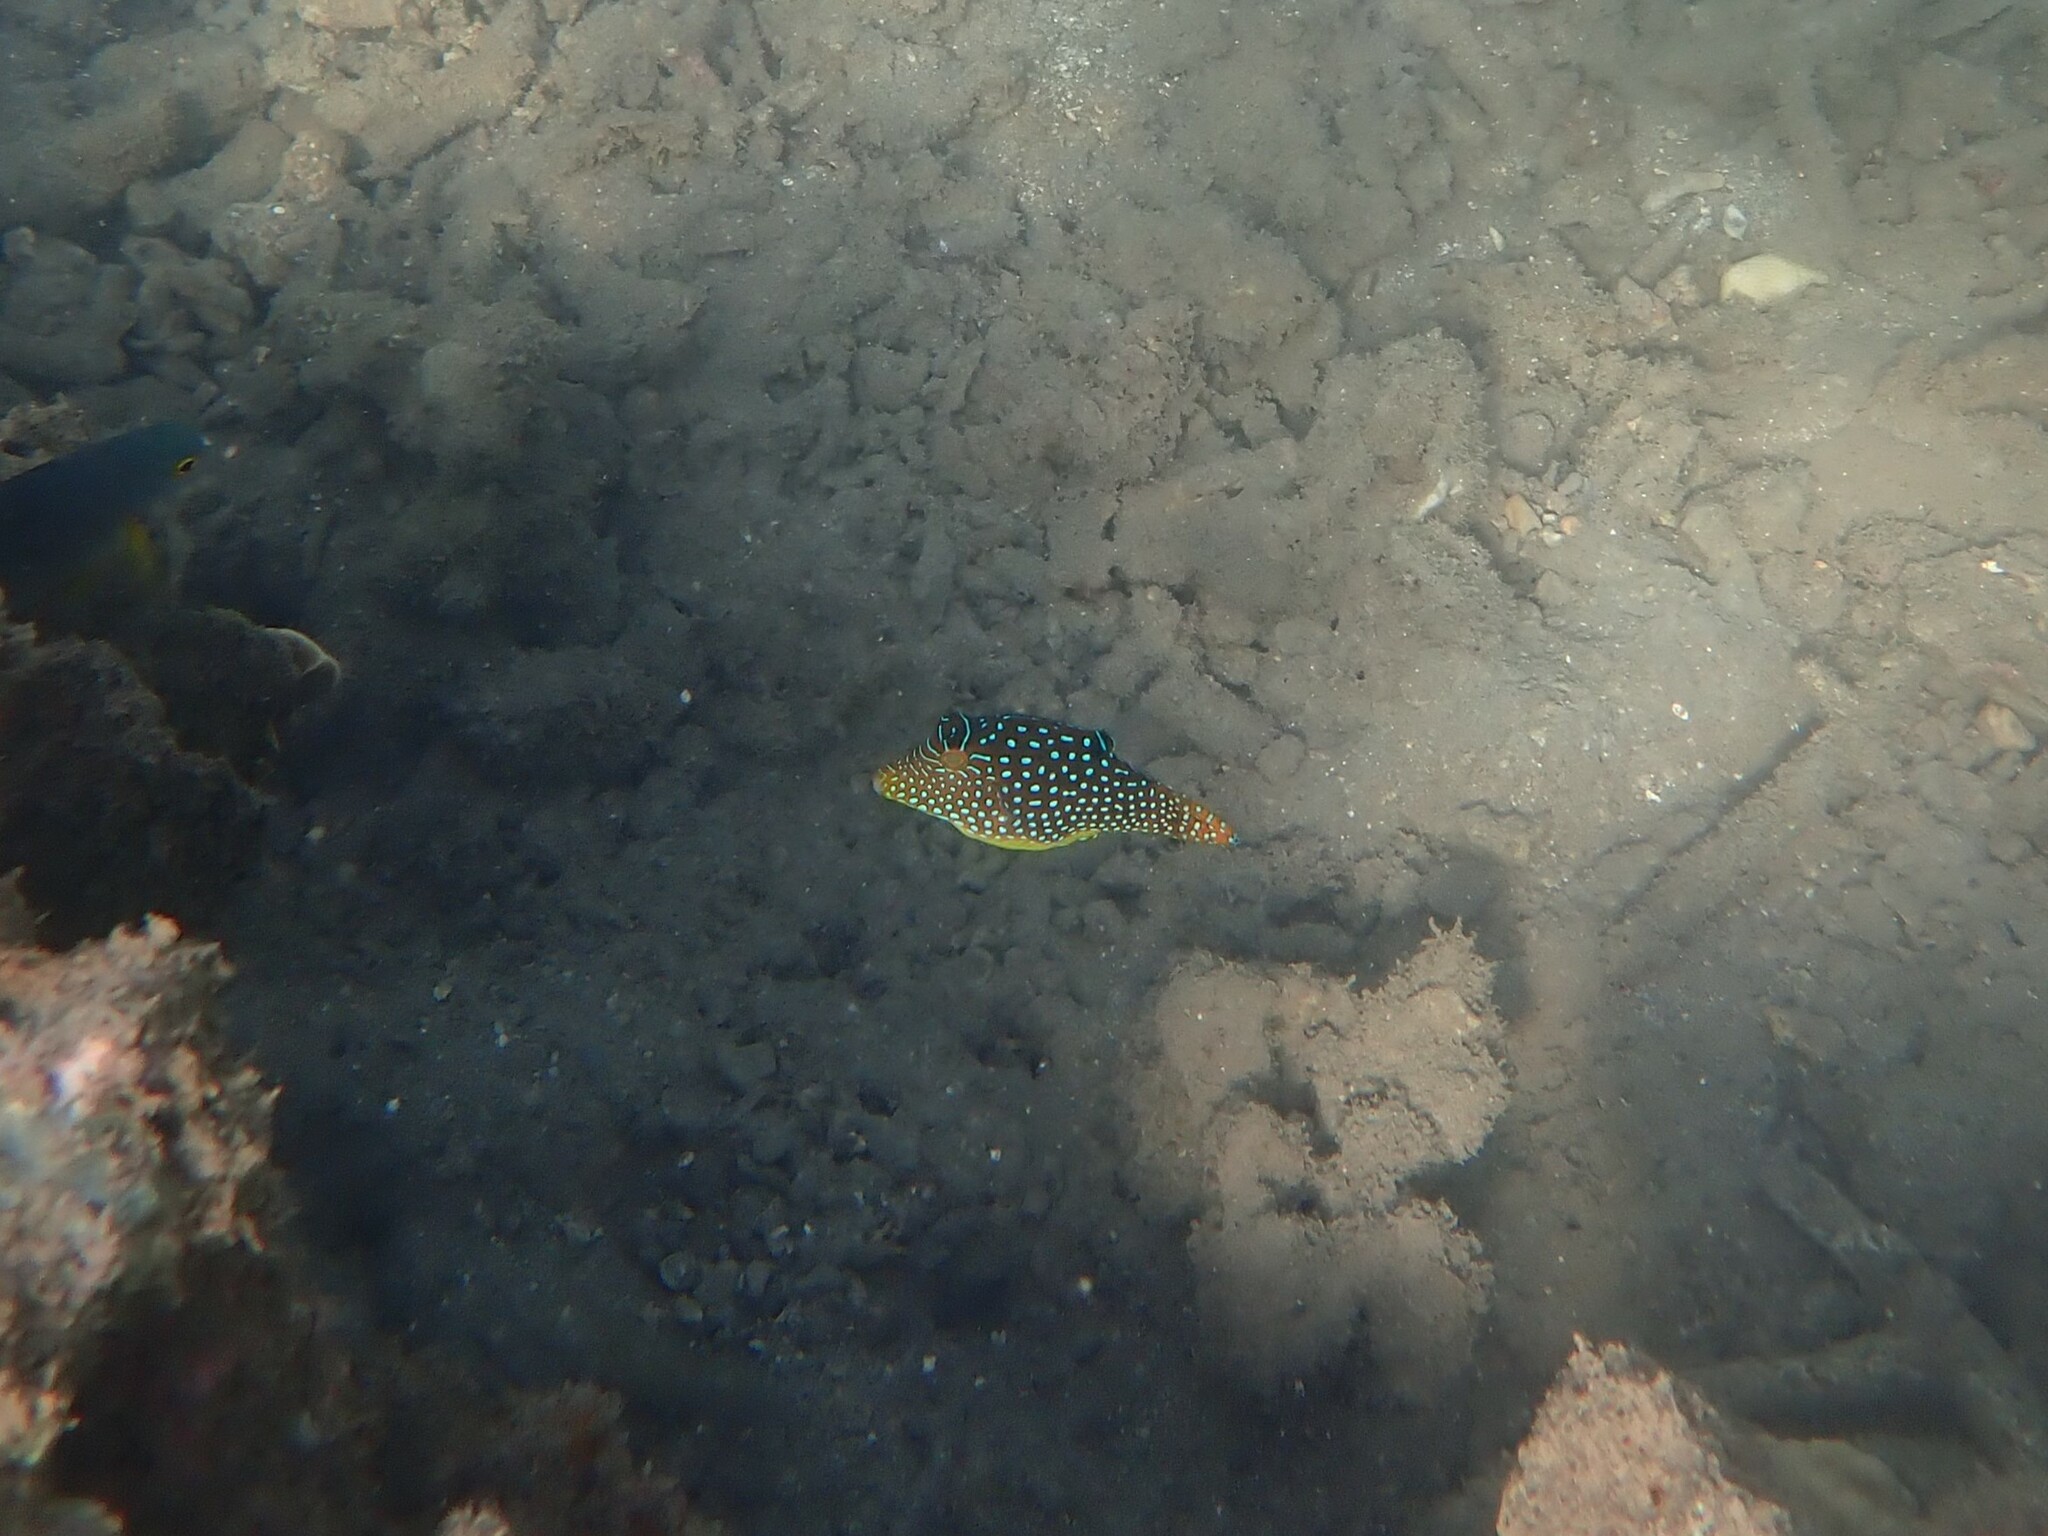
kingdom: Animalia
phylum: Chordata
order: Tetraodontiformes
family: Tetraodontidae
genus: Canthigaster
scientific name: Canthigaster solandri
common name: False-eye toby
